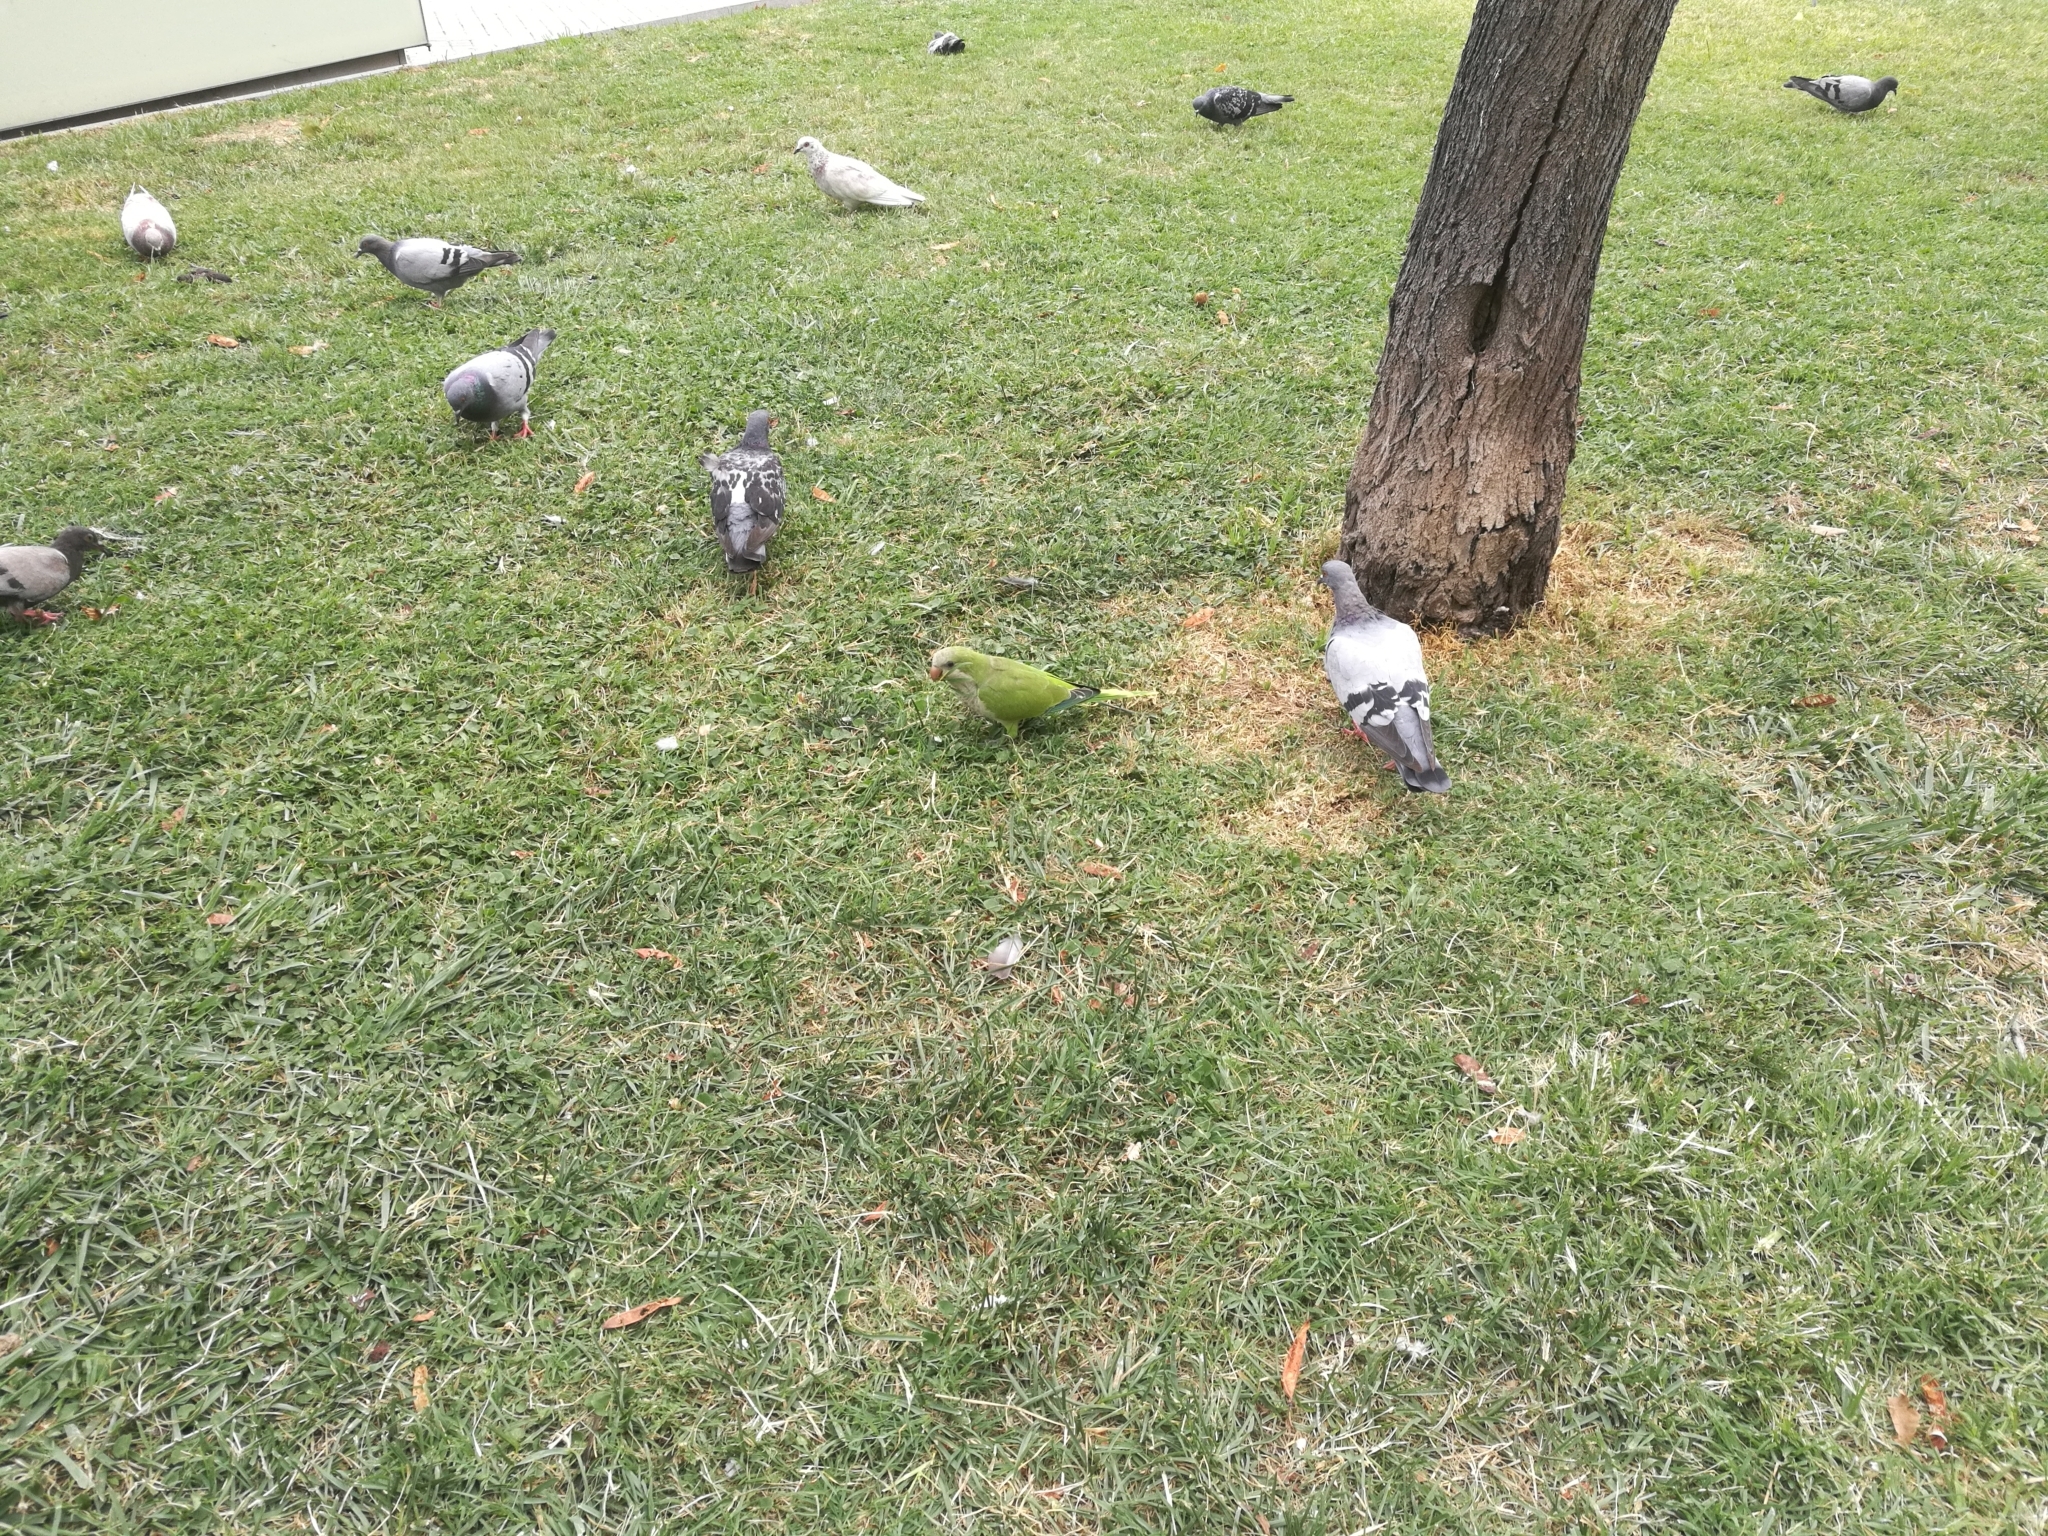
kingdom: Animalia
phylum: Chordata
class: Aves
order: Psittaciformes
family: Psittacidae
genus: Myiopsitta
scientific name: Myiopsitta monachus
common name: Monk parakeet
